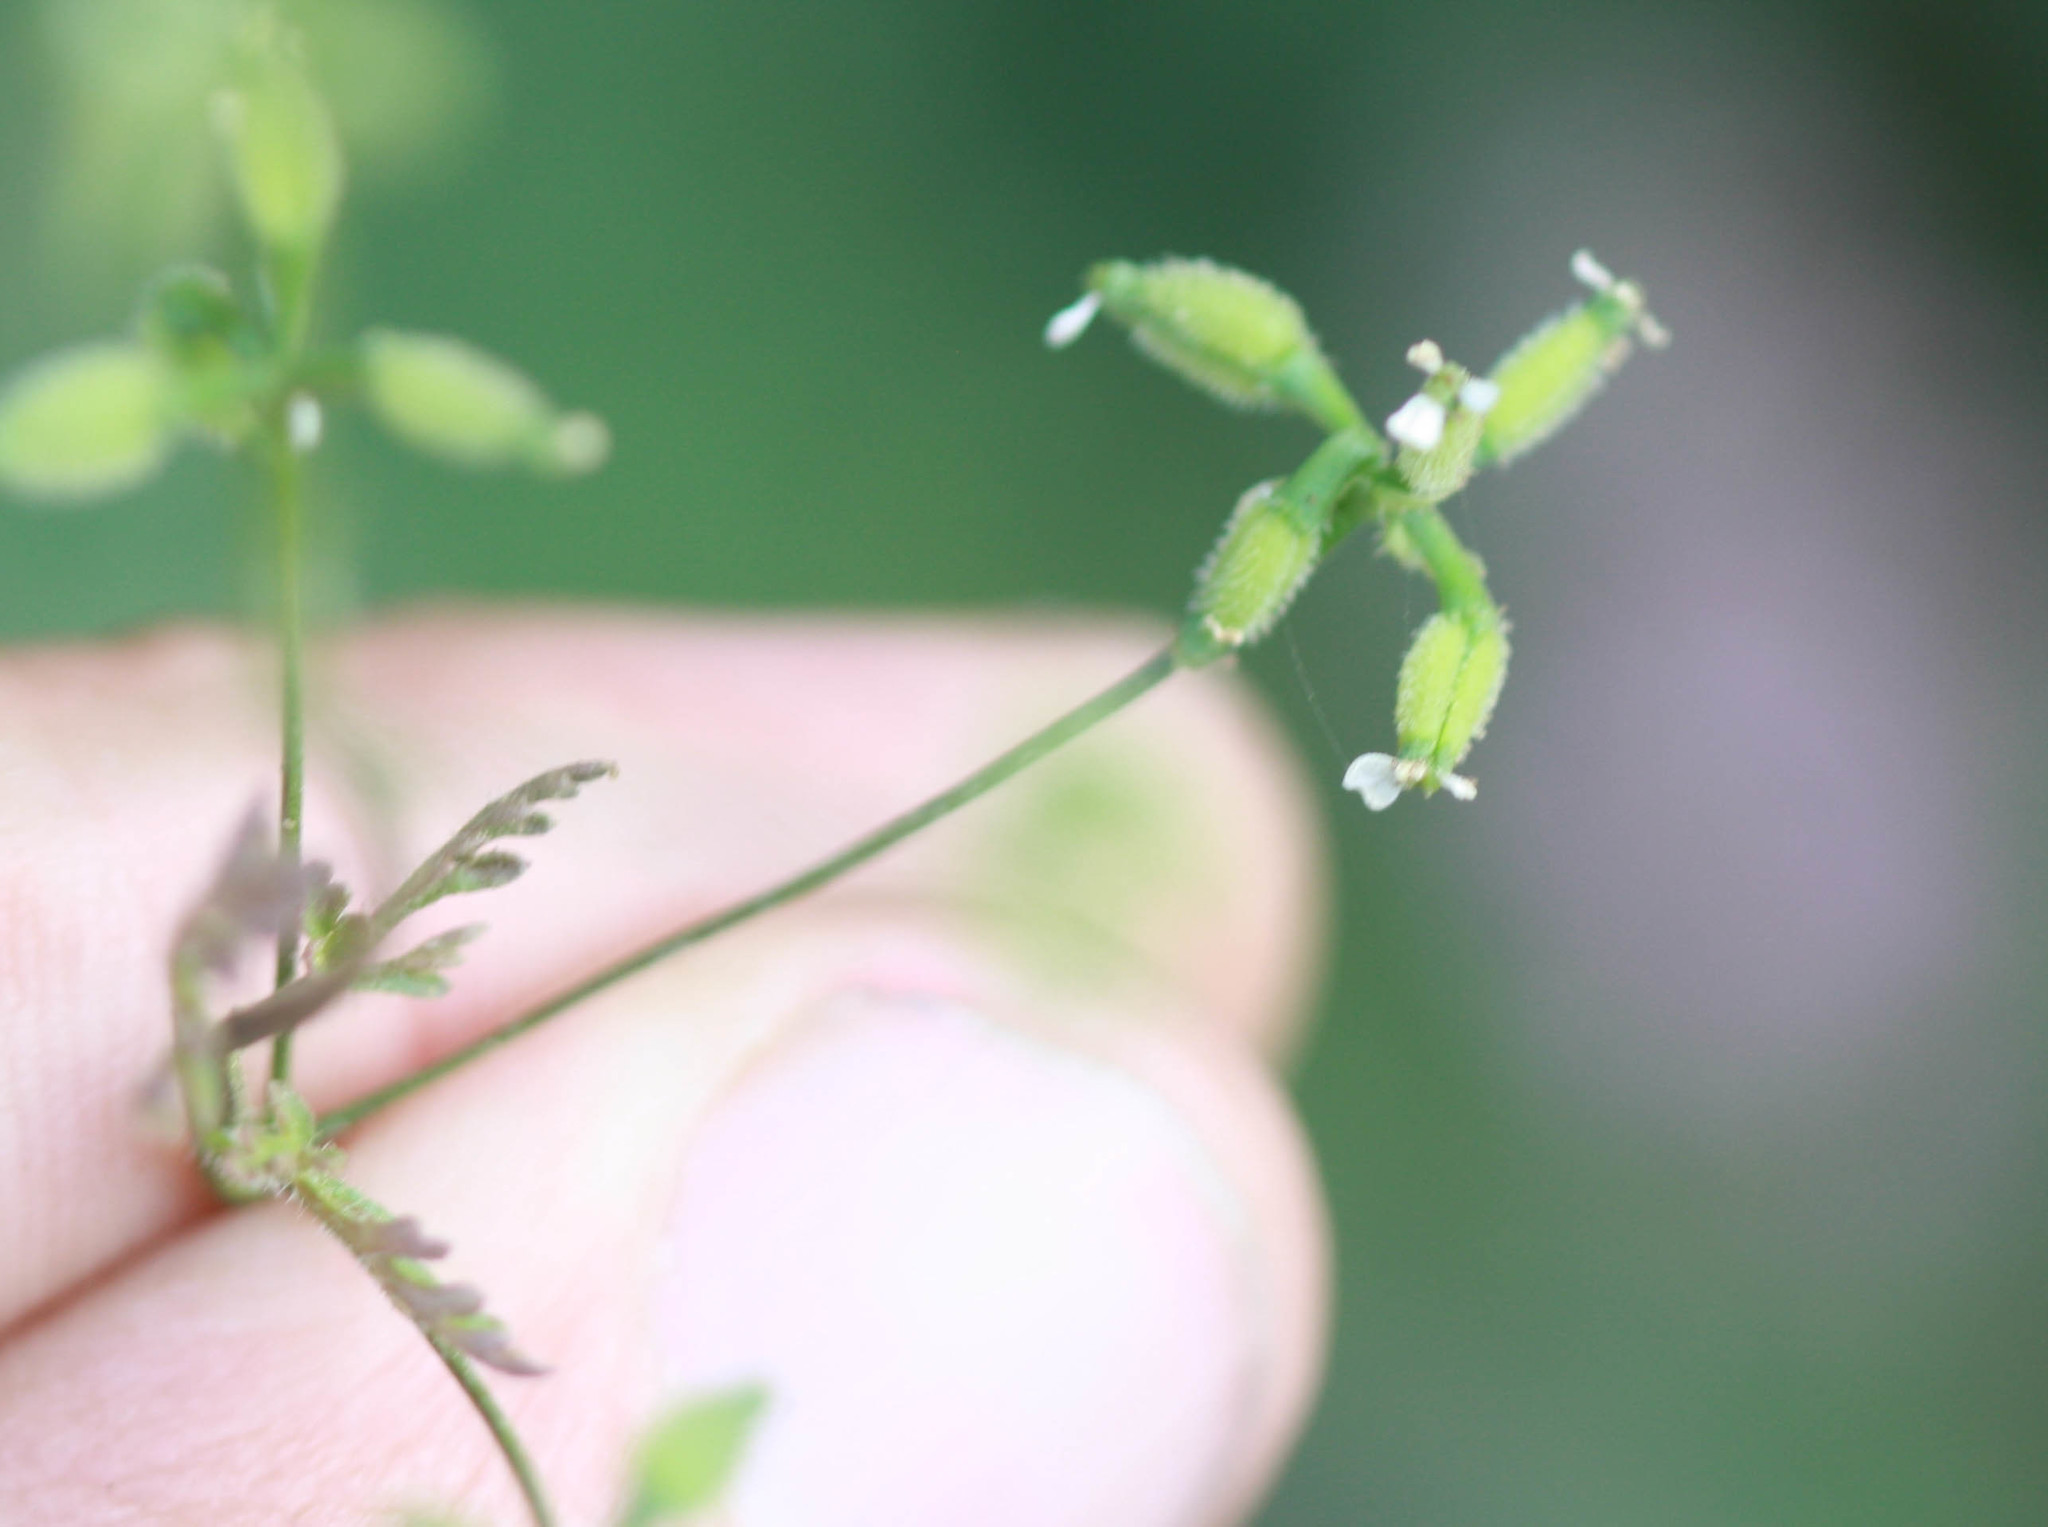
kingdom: Plantae
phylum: Tracheophyta
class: Magnoliopsida
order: Apiales
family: Apiaceae
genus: Anthriscus
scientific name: Anthriscus caucalis
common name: Bur chervil
